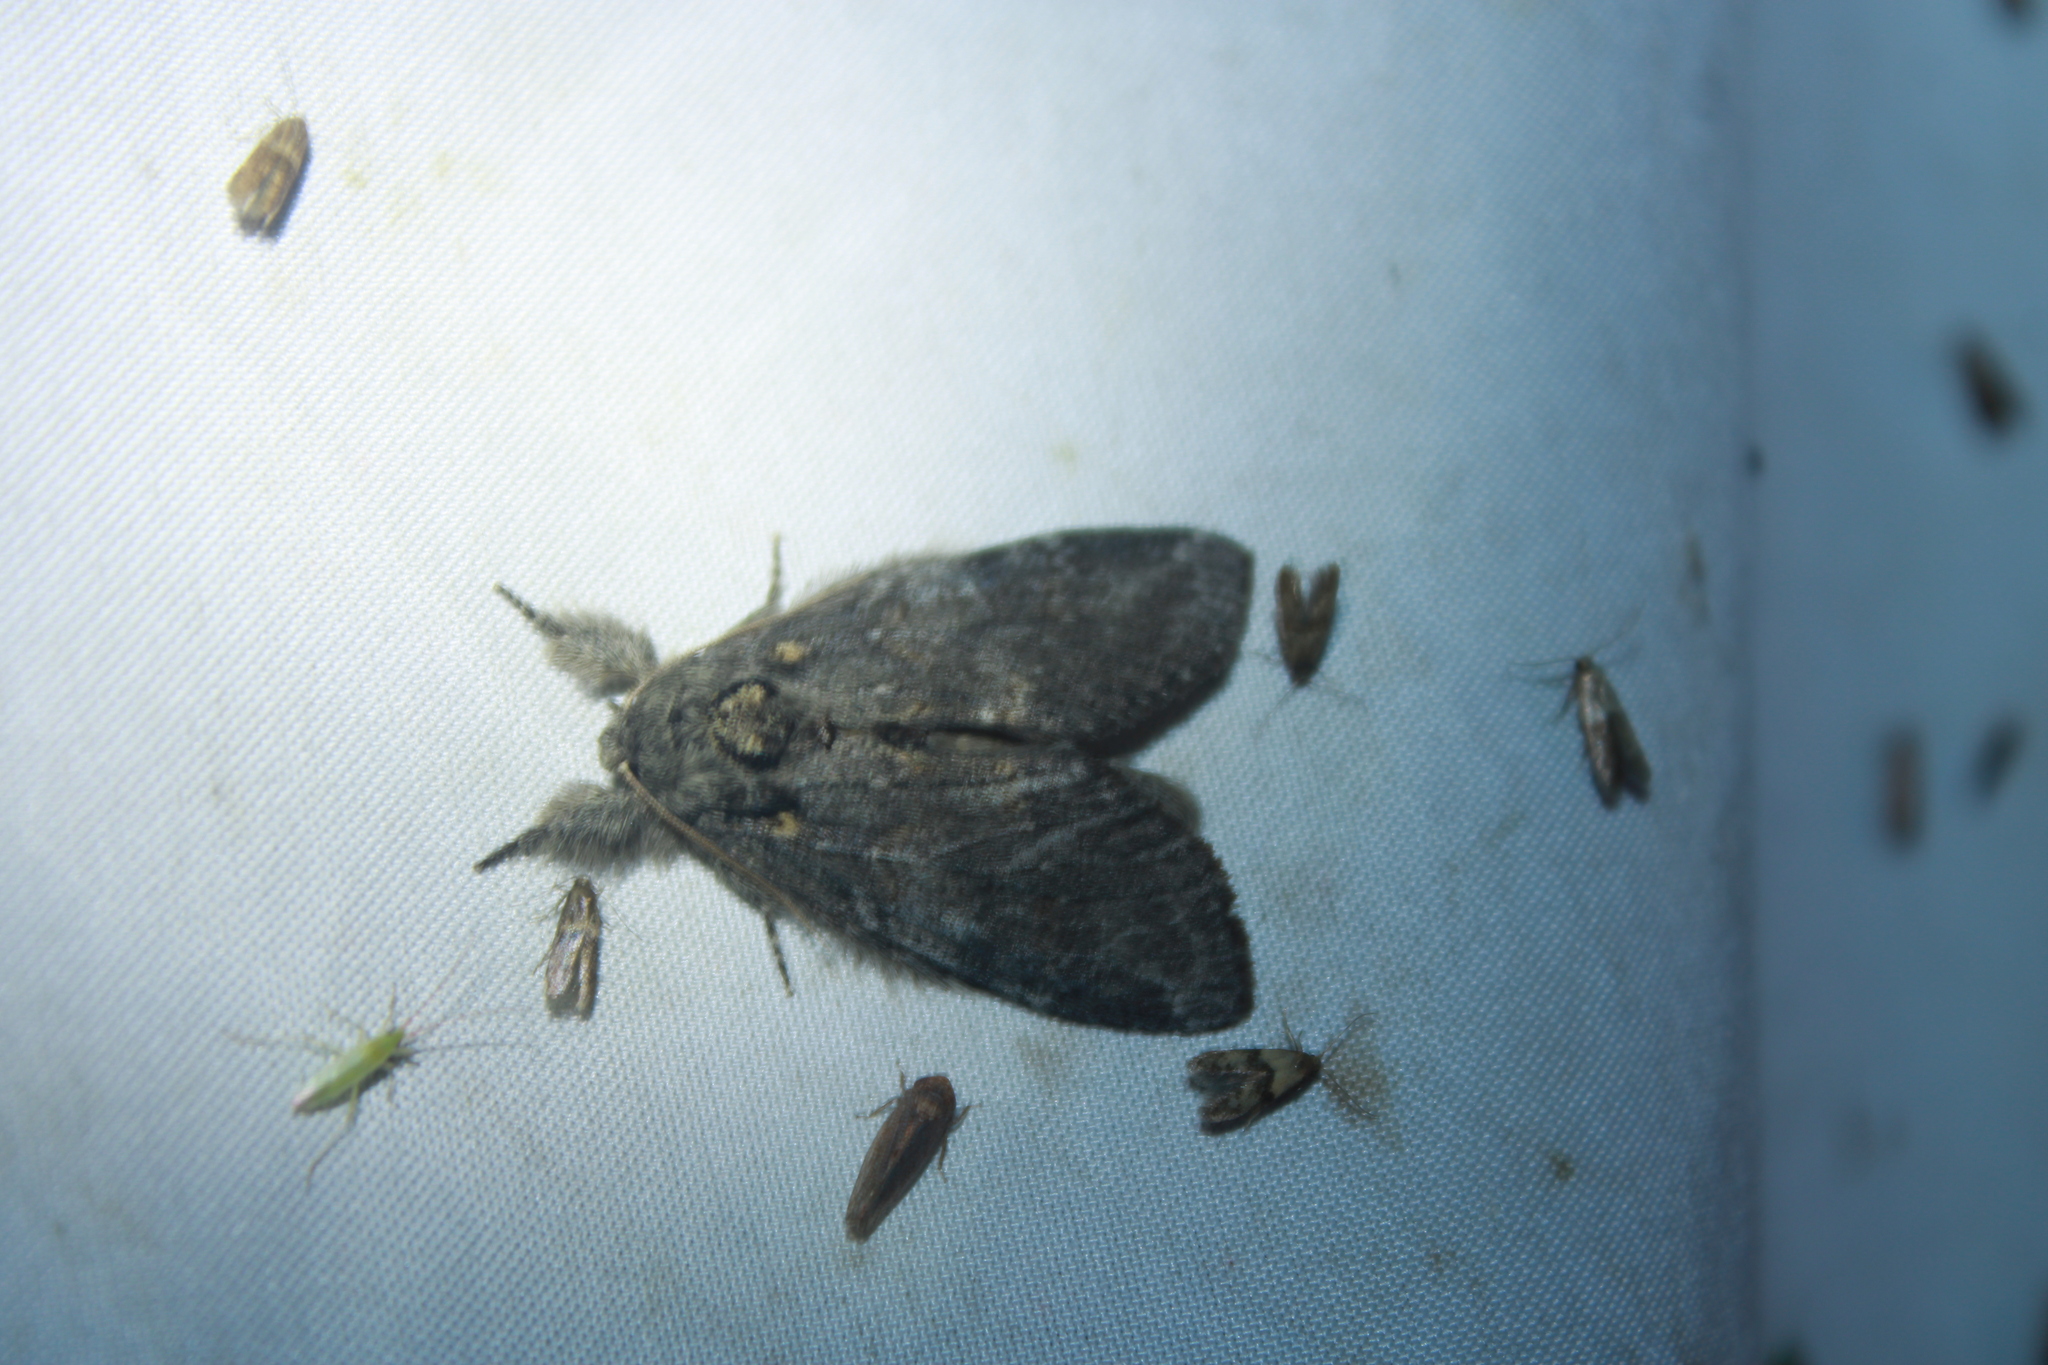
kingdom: Animalia
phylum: Arthropoda
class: Insecta
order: Lepidoptera
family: Notodontidae
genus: Peridea
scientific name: Peridea angulosa
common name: Angulose prominent
